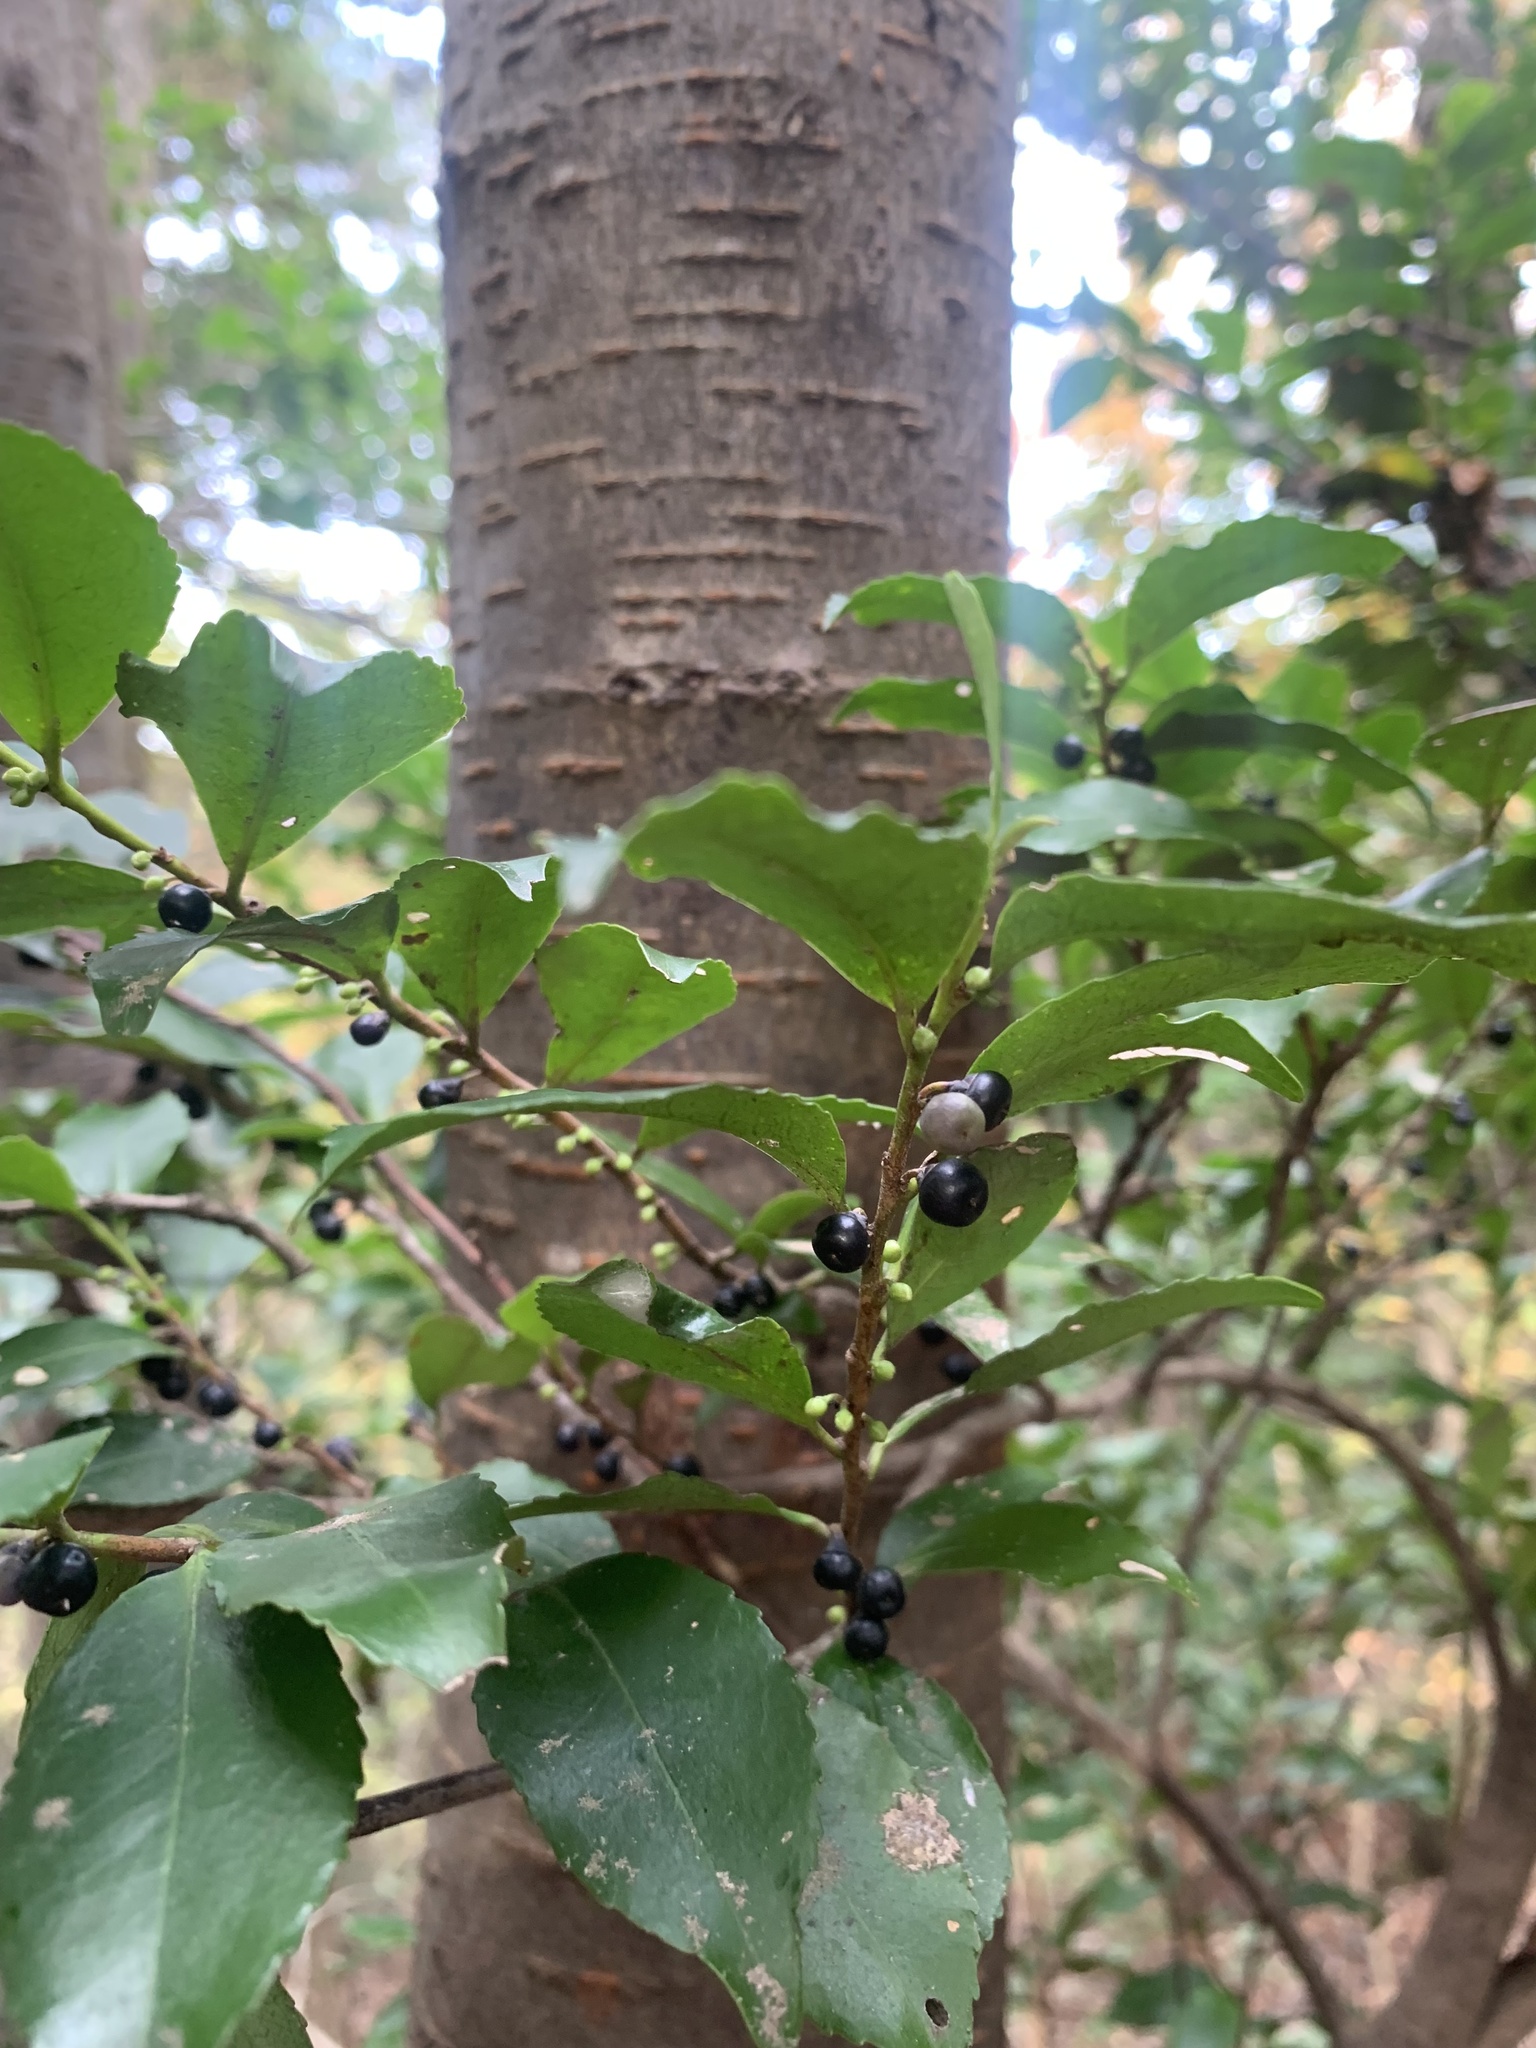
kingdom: Plantae
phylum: Tracheophyta
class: Magnoliopsida
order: Ericales
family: Pentaphylacaceae
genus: Eurya
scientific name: Eurya japonica
